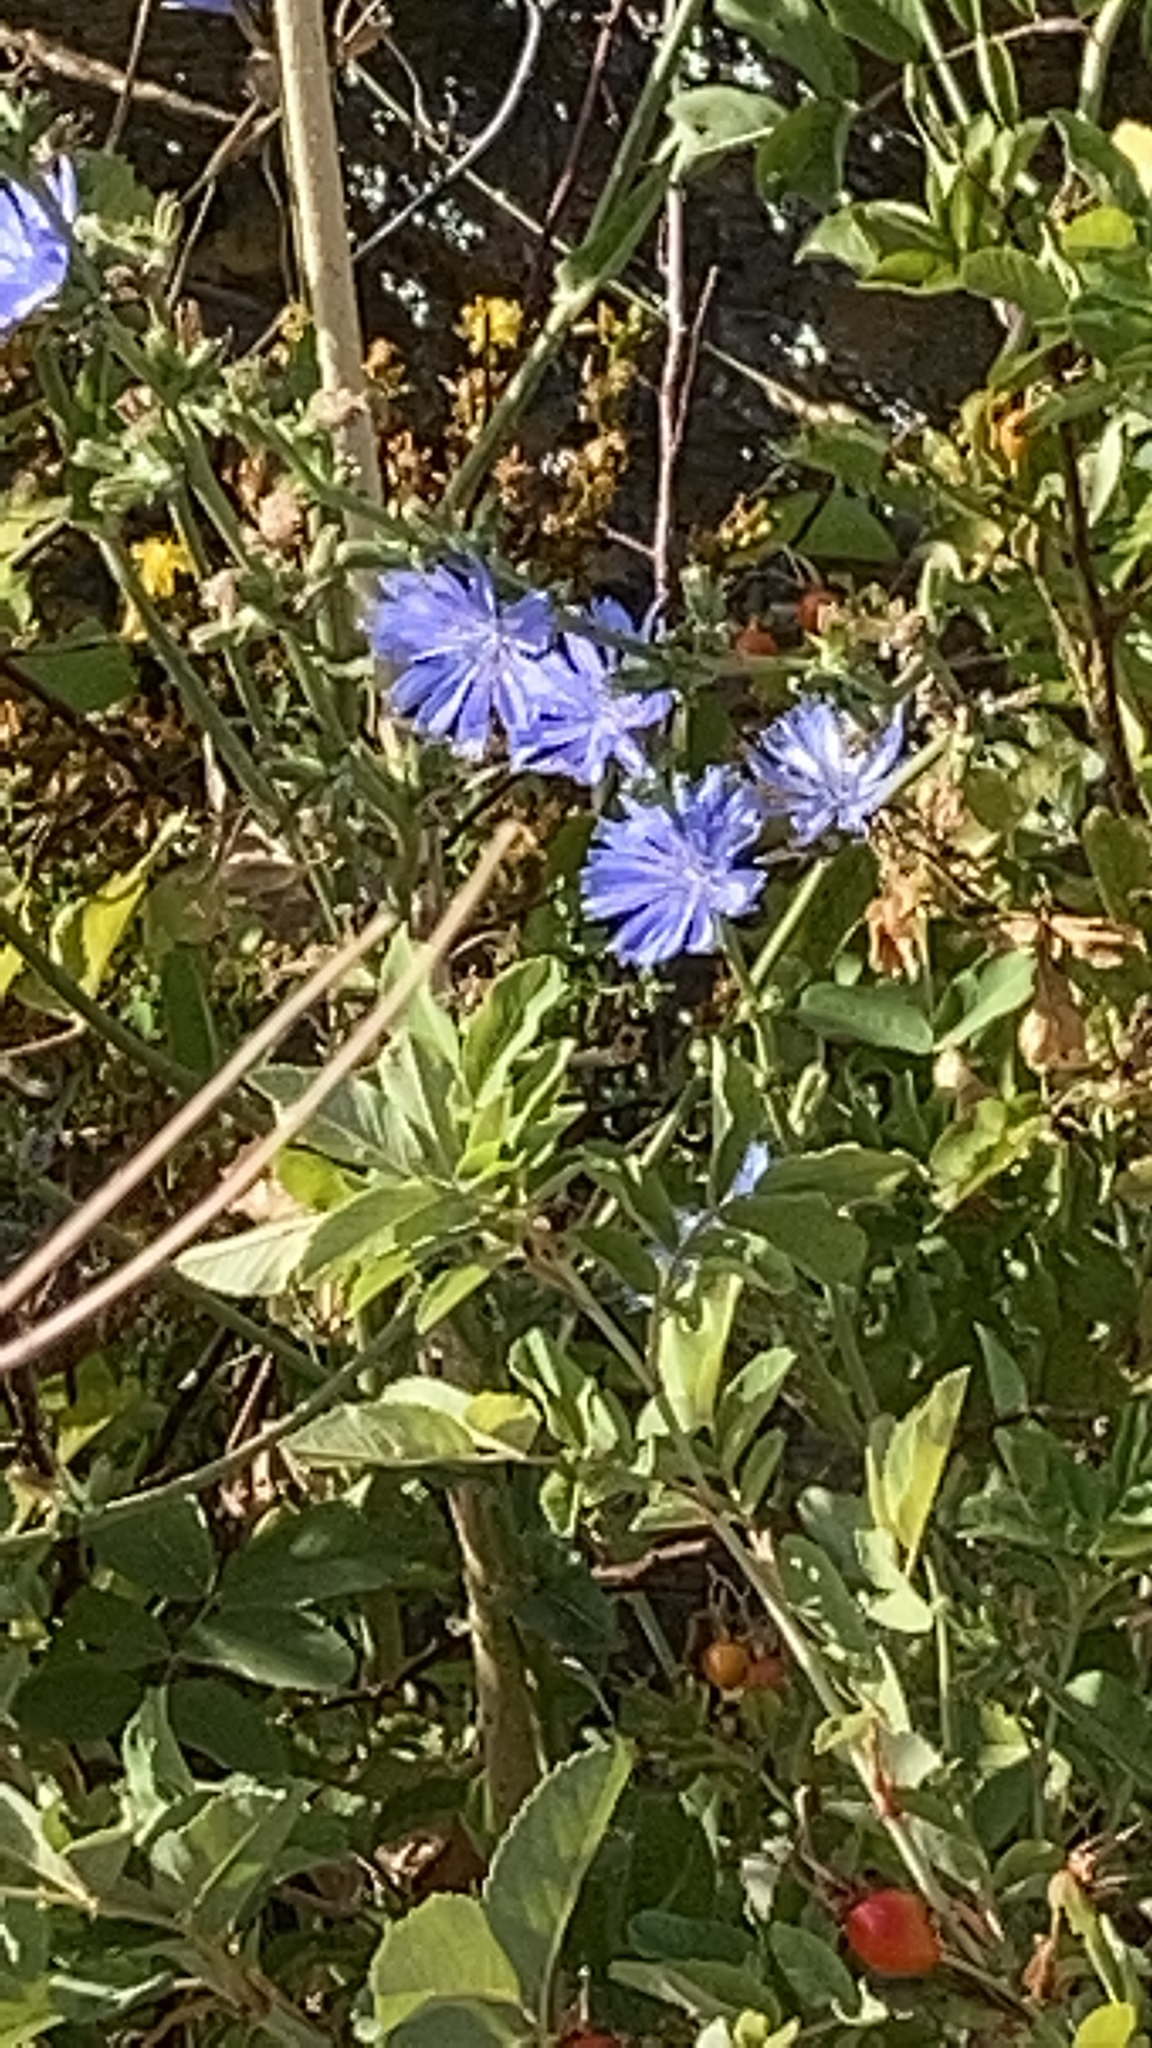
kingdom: Plantae
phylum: Tracheophyta
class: Magnoliopsida
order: Asterales
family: Asteraceae
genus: Cichorium
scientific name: Cichorium intybus
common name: Chicory
